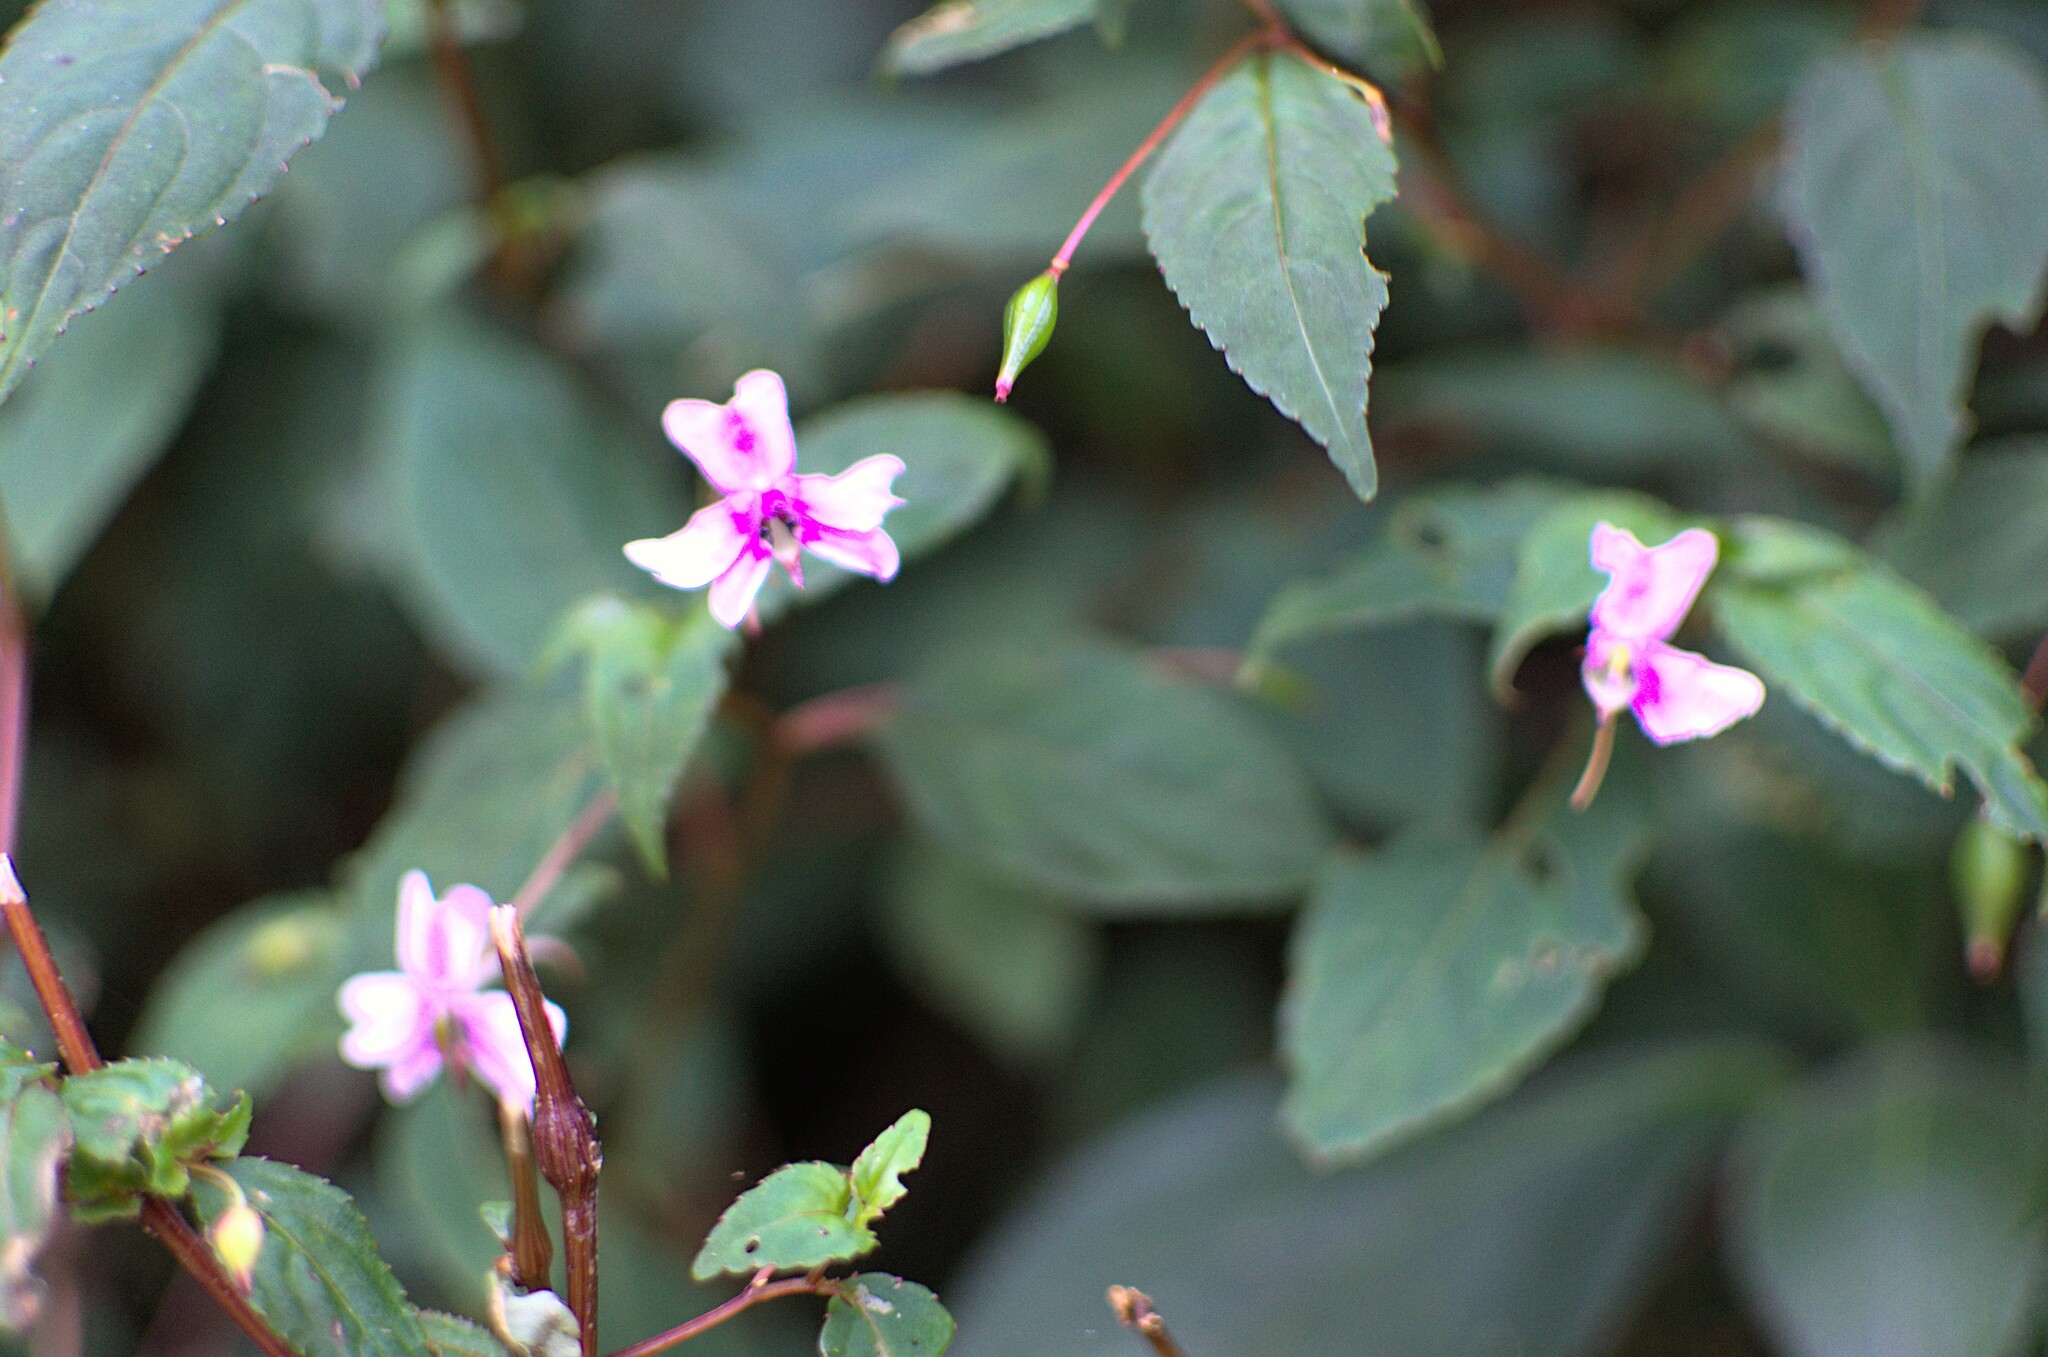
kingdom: Plantae
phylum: Tracheophyta
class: Magnoliopsida
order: Ericales
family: Balsaminaceae
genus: Impatiens
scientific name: Impatiens leptopoda
